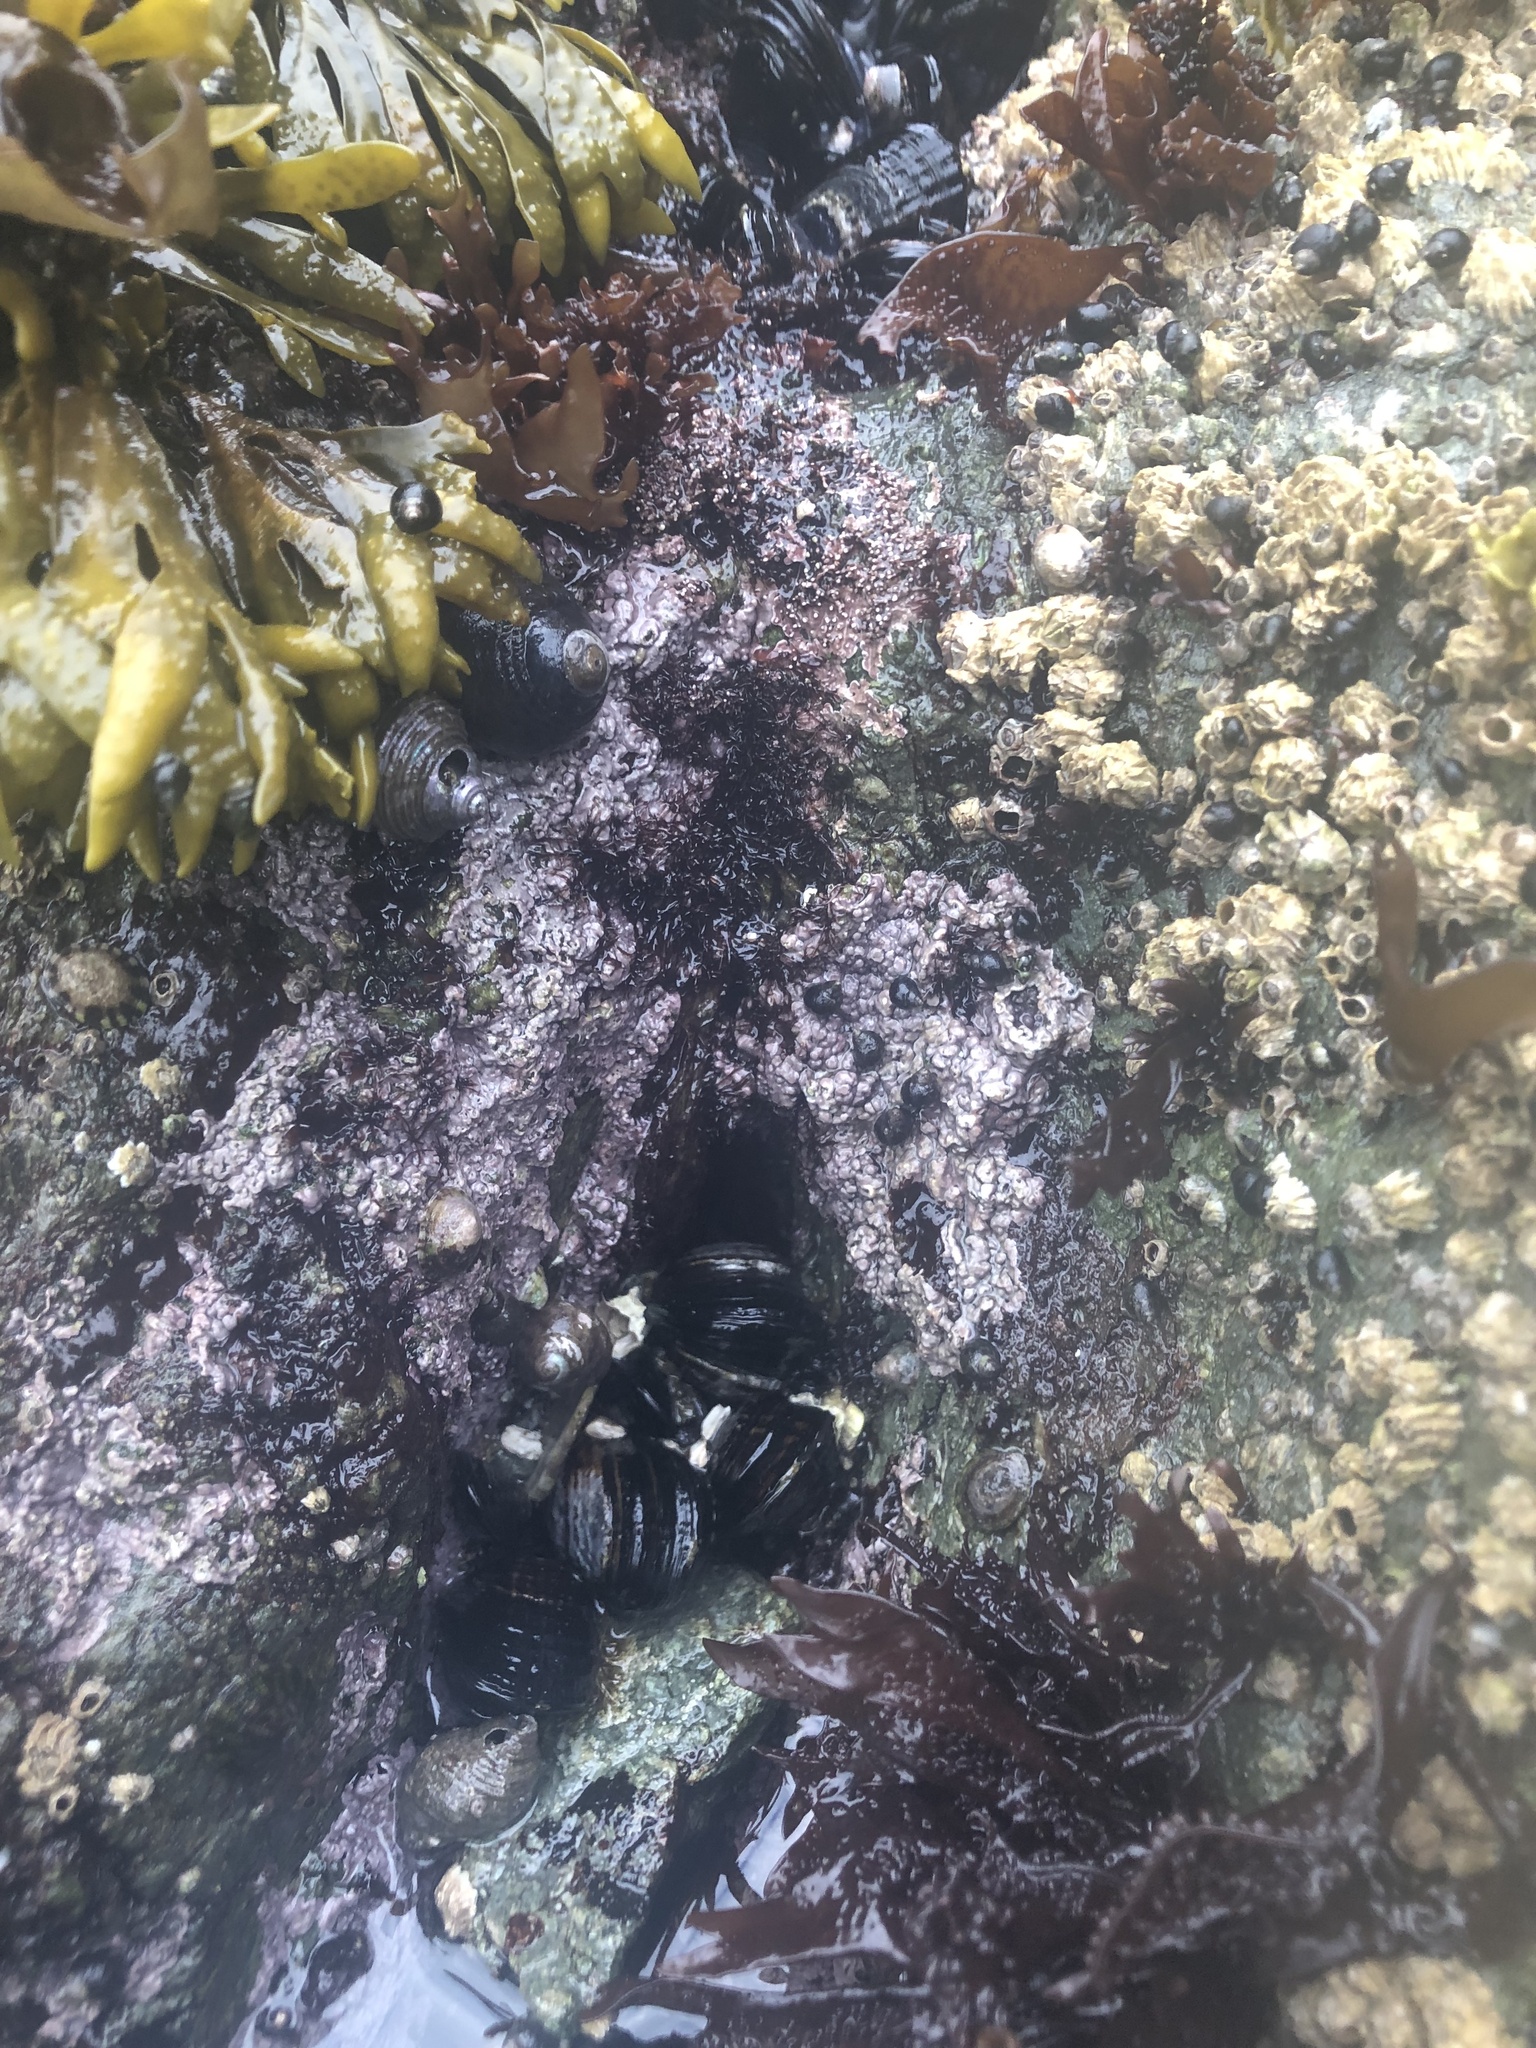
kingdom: Plantae
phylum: Rhodophyta
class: Florideophyceae
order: Corallinales
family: Corallinaceae
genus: Chamberlainium
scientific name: Chamberlainium tumidum
